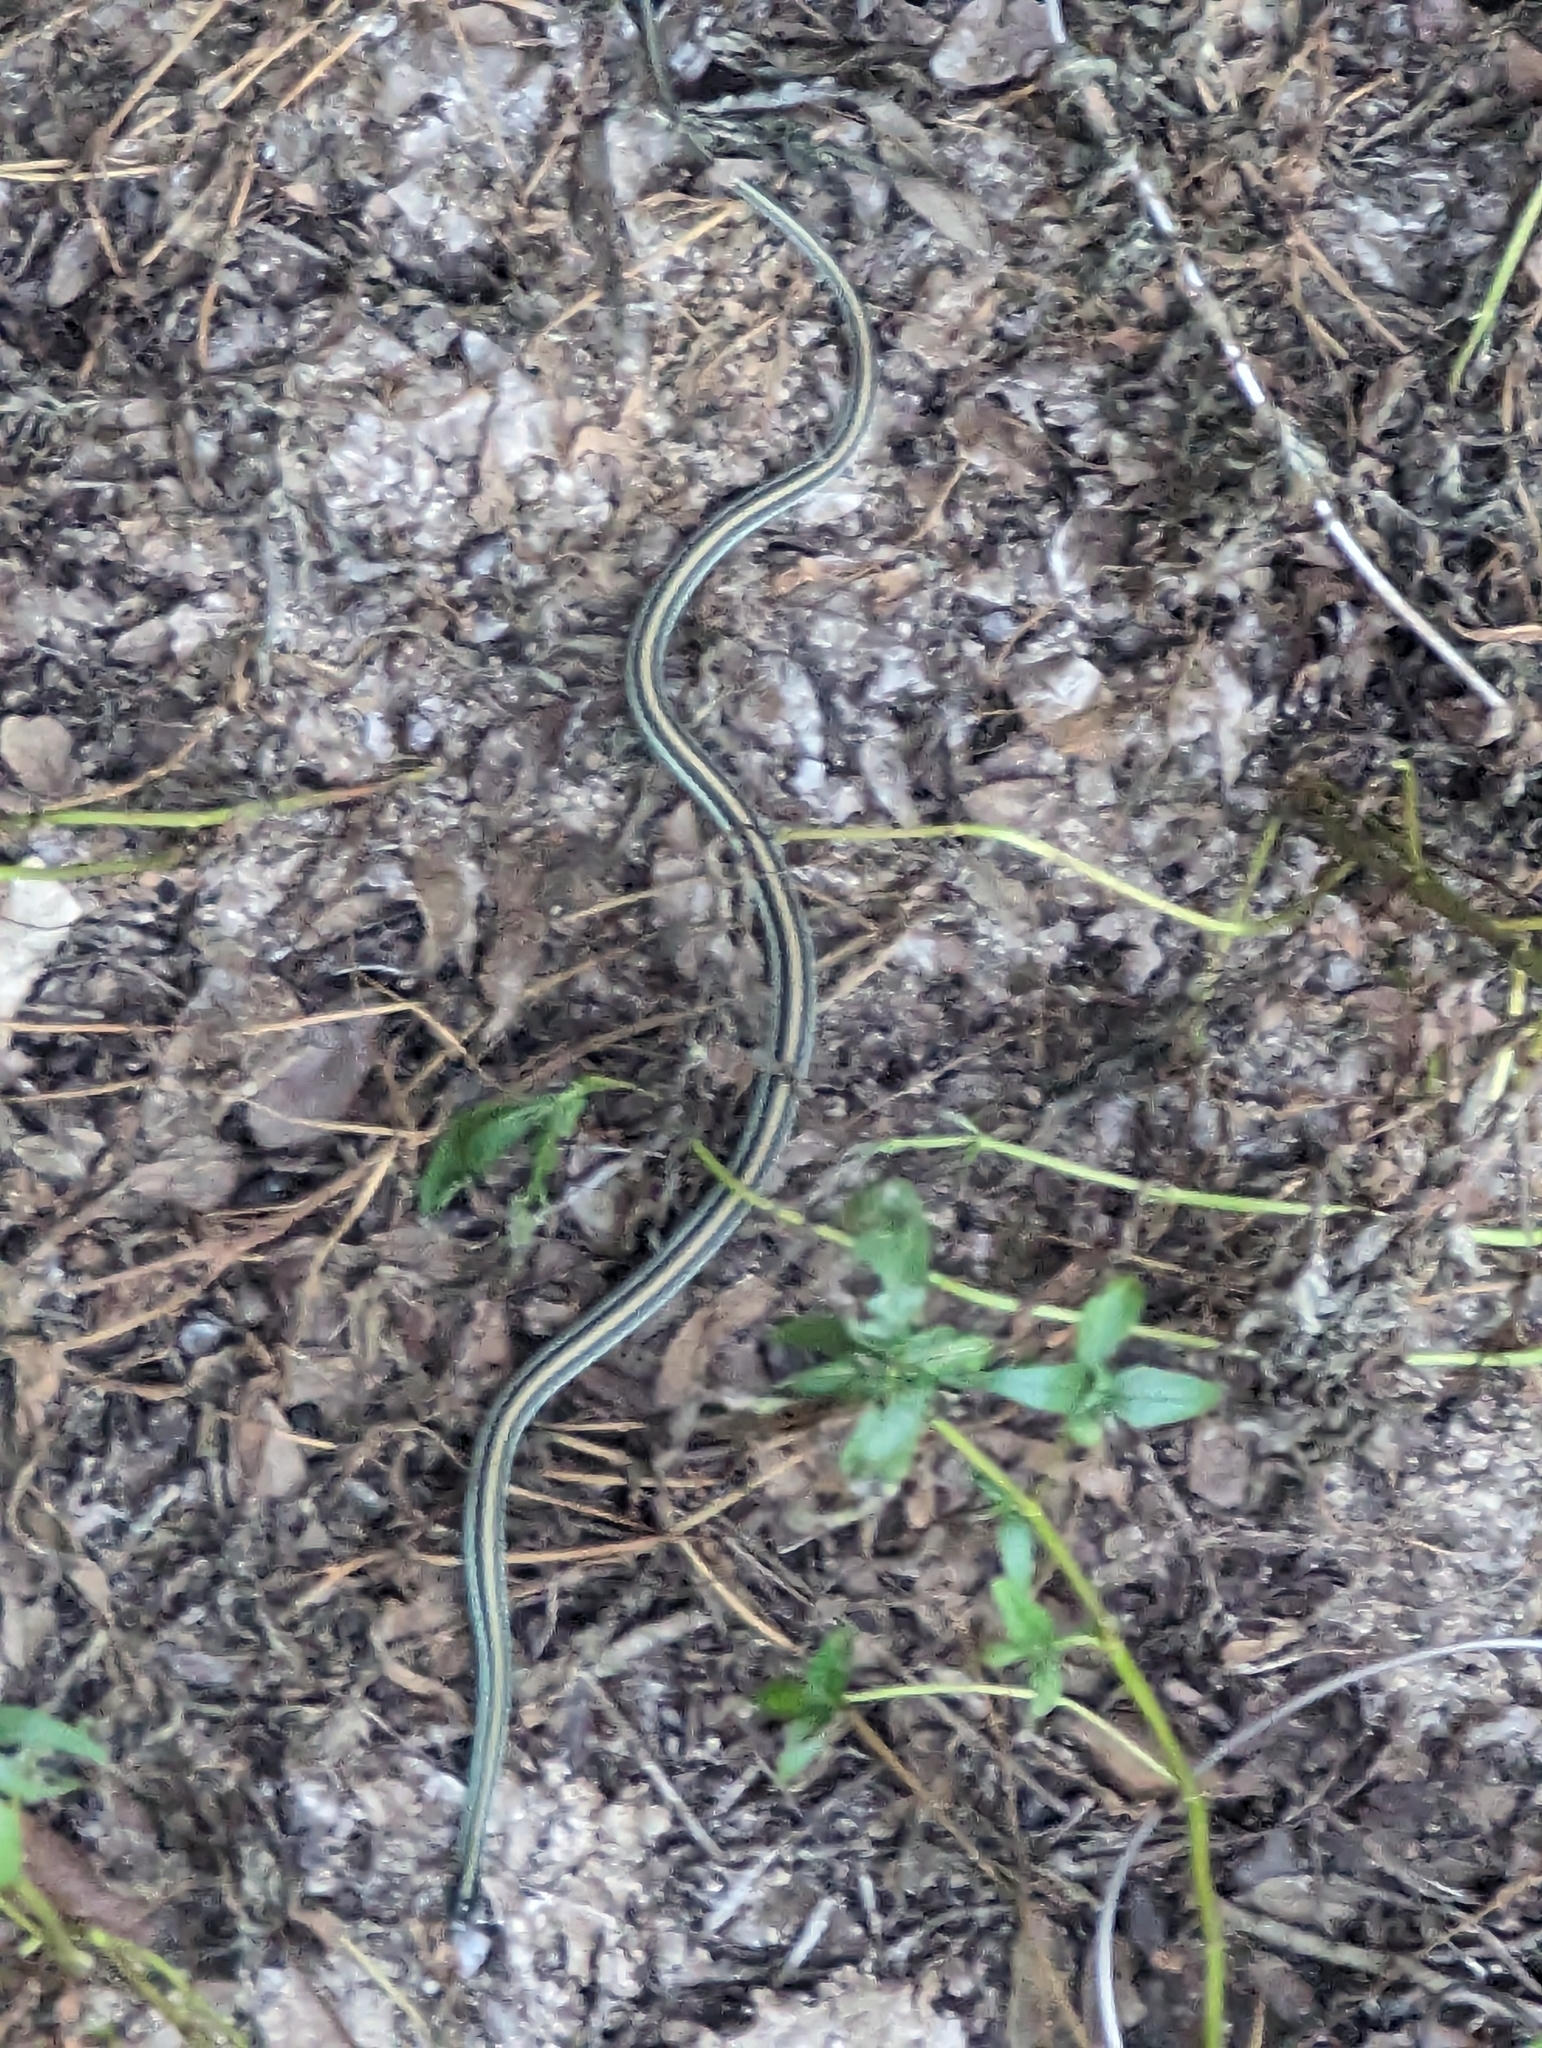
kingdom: Animalia
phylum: Chordata
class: Squamata
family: Colubridae
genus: Thamnophis
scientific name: Thamnophis proximus
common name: Western ribbon snake
